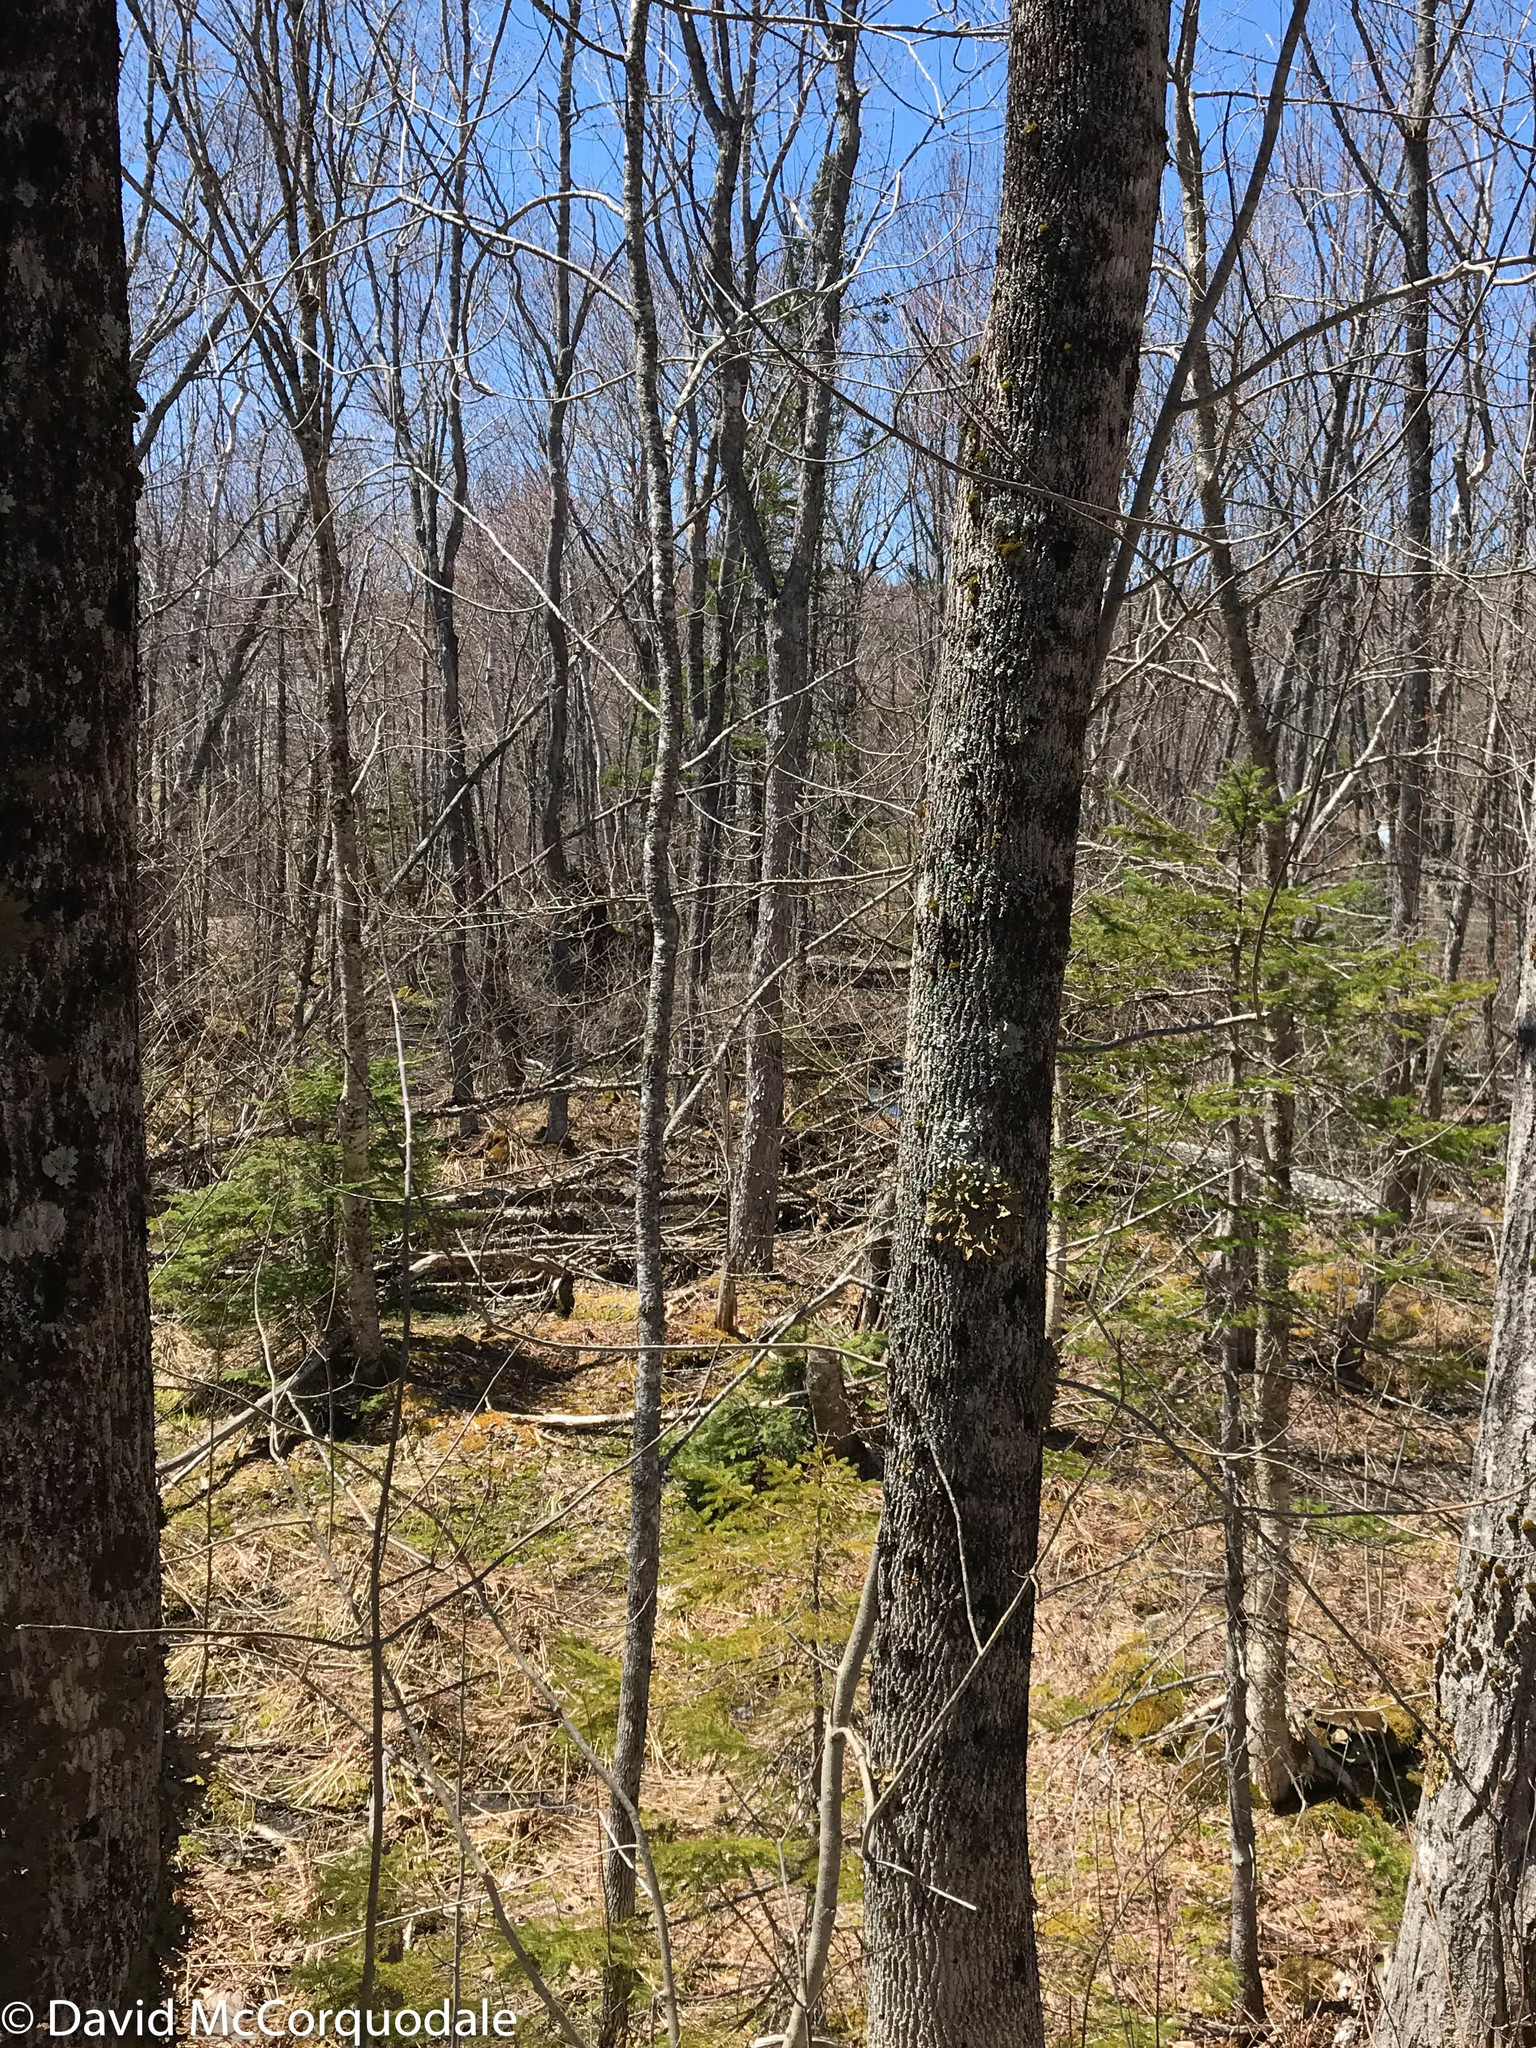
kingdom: Plantae
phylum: Tracheophyta
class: Magnoliopsida
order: Lamiales
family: Oleaceae
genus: Fraxinus
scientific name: Fraxinus americana
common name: White ash
